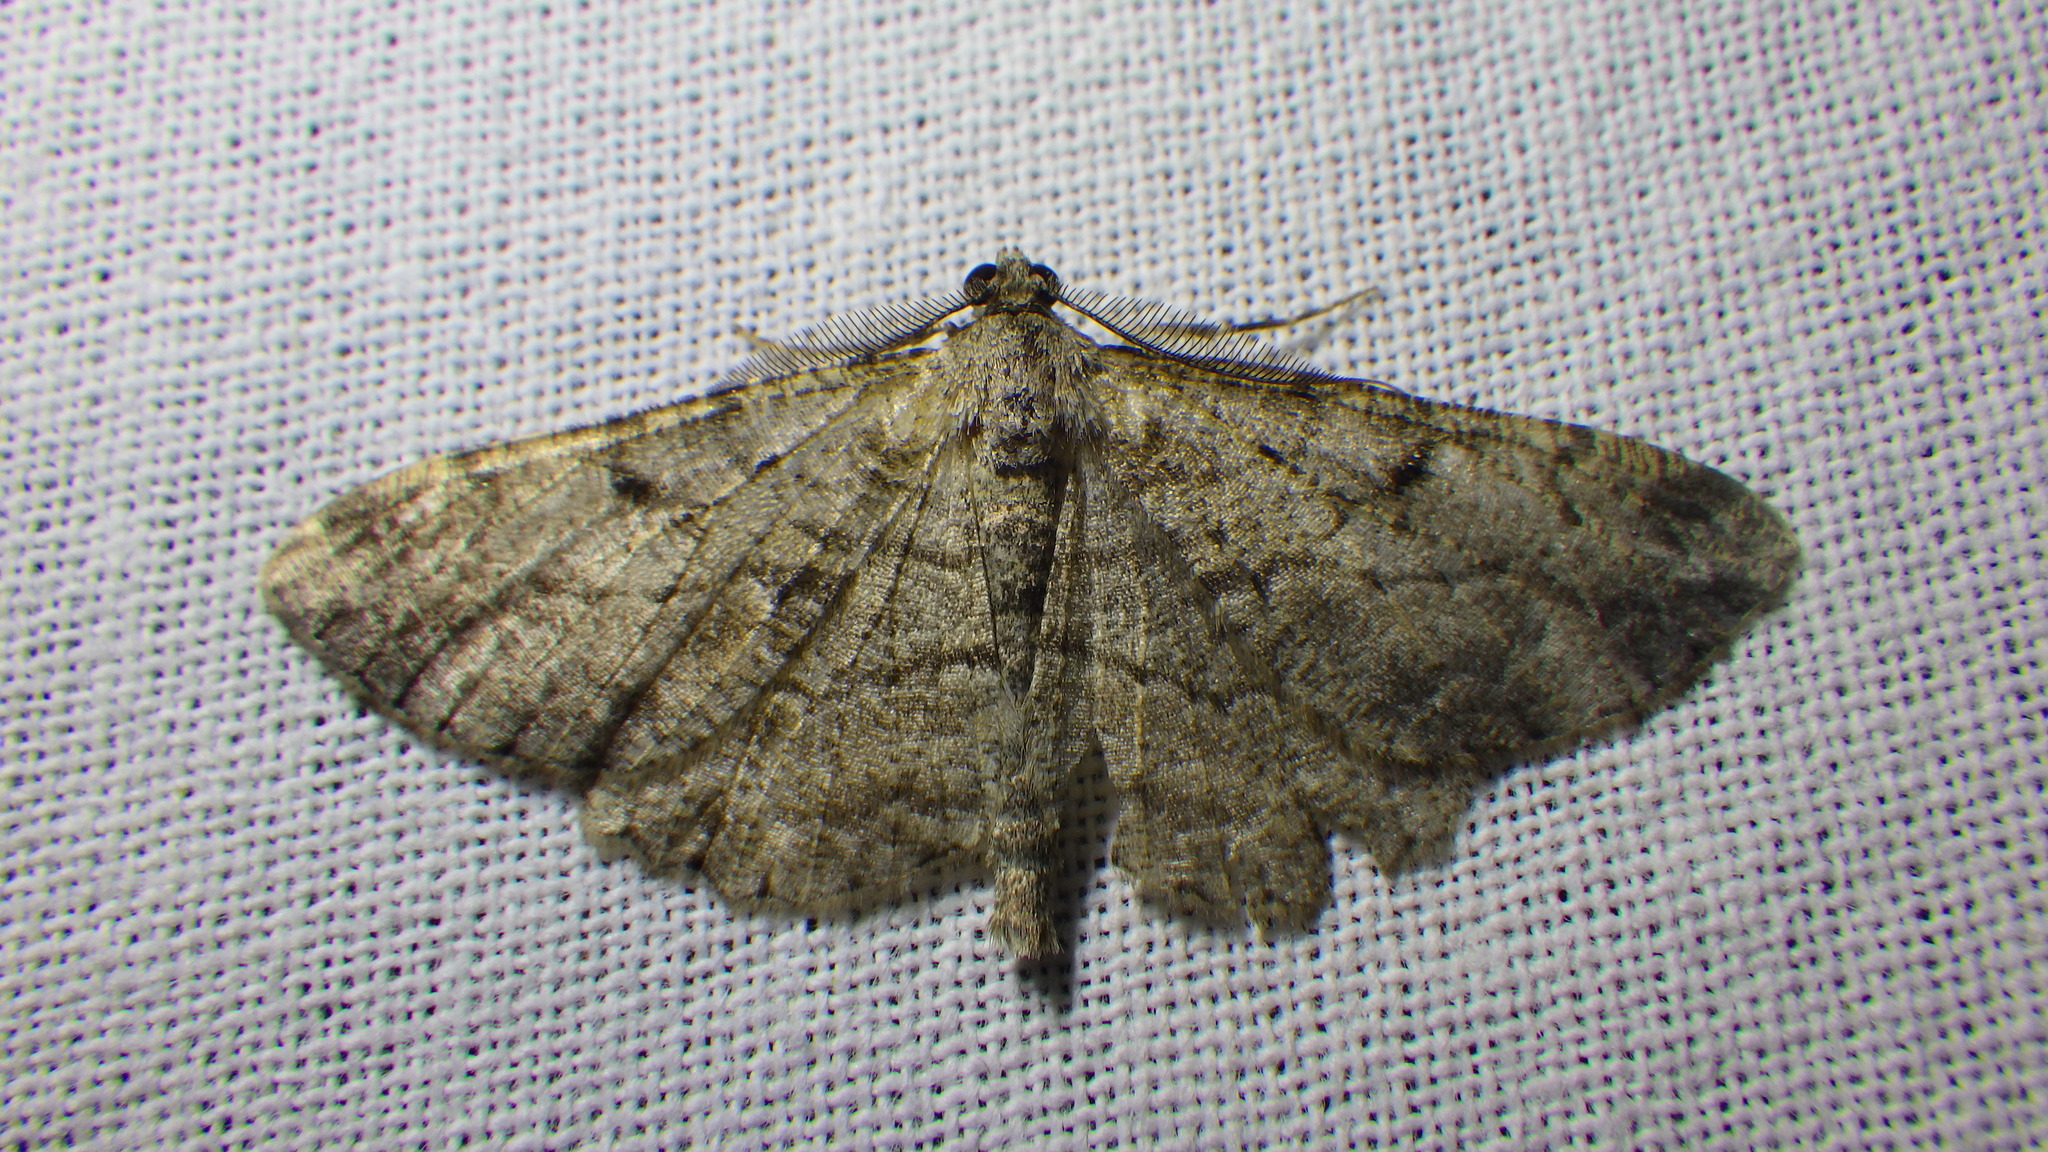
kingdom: Animalia
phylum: Arthropoda
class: Insecta
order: Lepidoptera
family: Geometridae
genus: Peribatodes
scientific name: Peribatodes rhomboidaria
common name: Willow beauty
